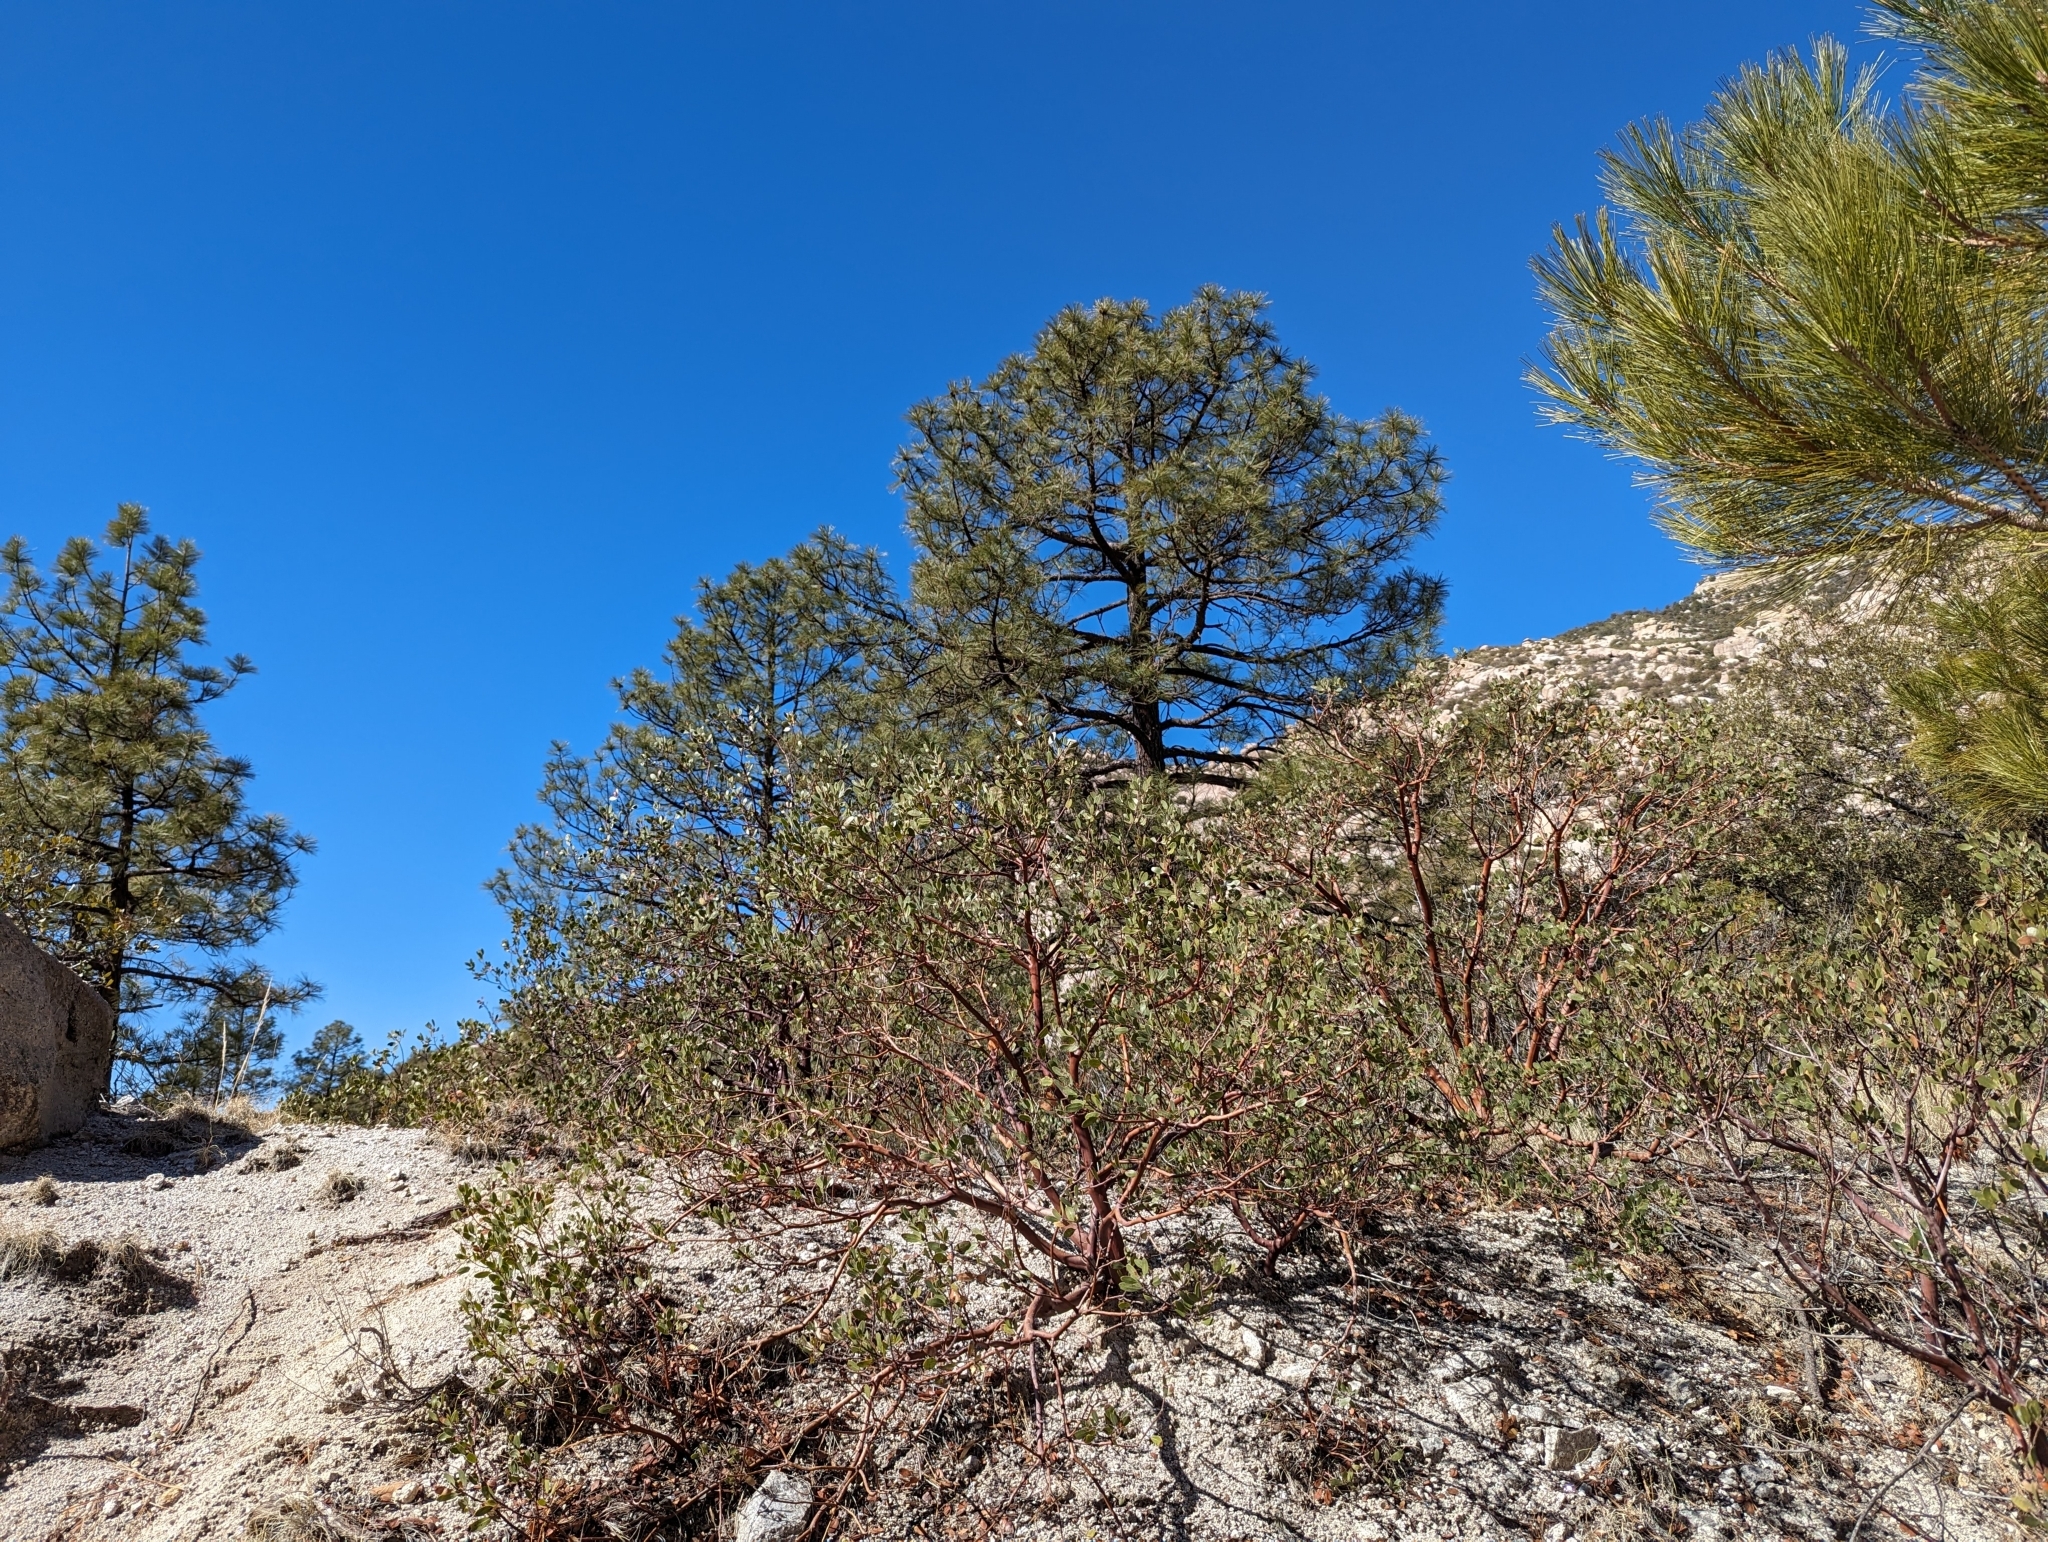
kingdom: Plantae
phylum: Tracheophyta
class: Magnoliopsida
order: Ericales
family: Ericaceae
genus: Arctostaphylos
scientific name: Arctostaphylos pungens
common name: Mexican manzanita
